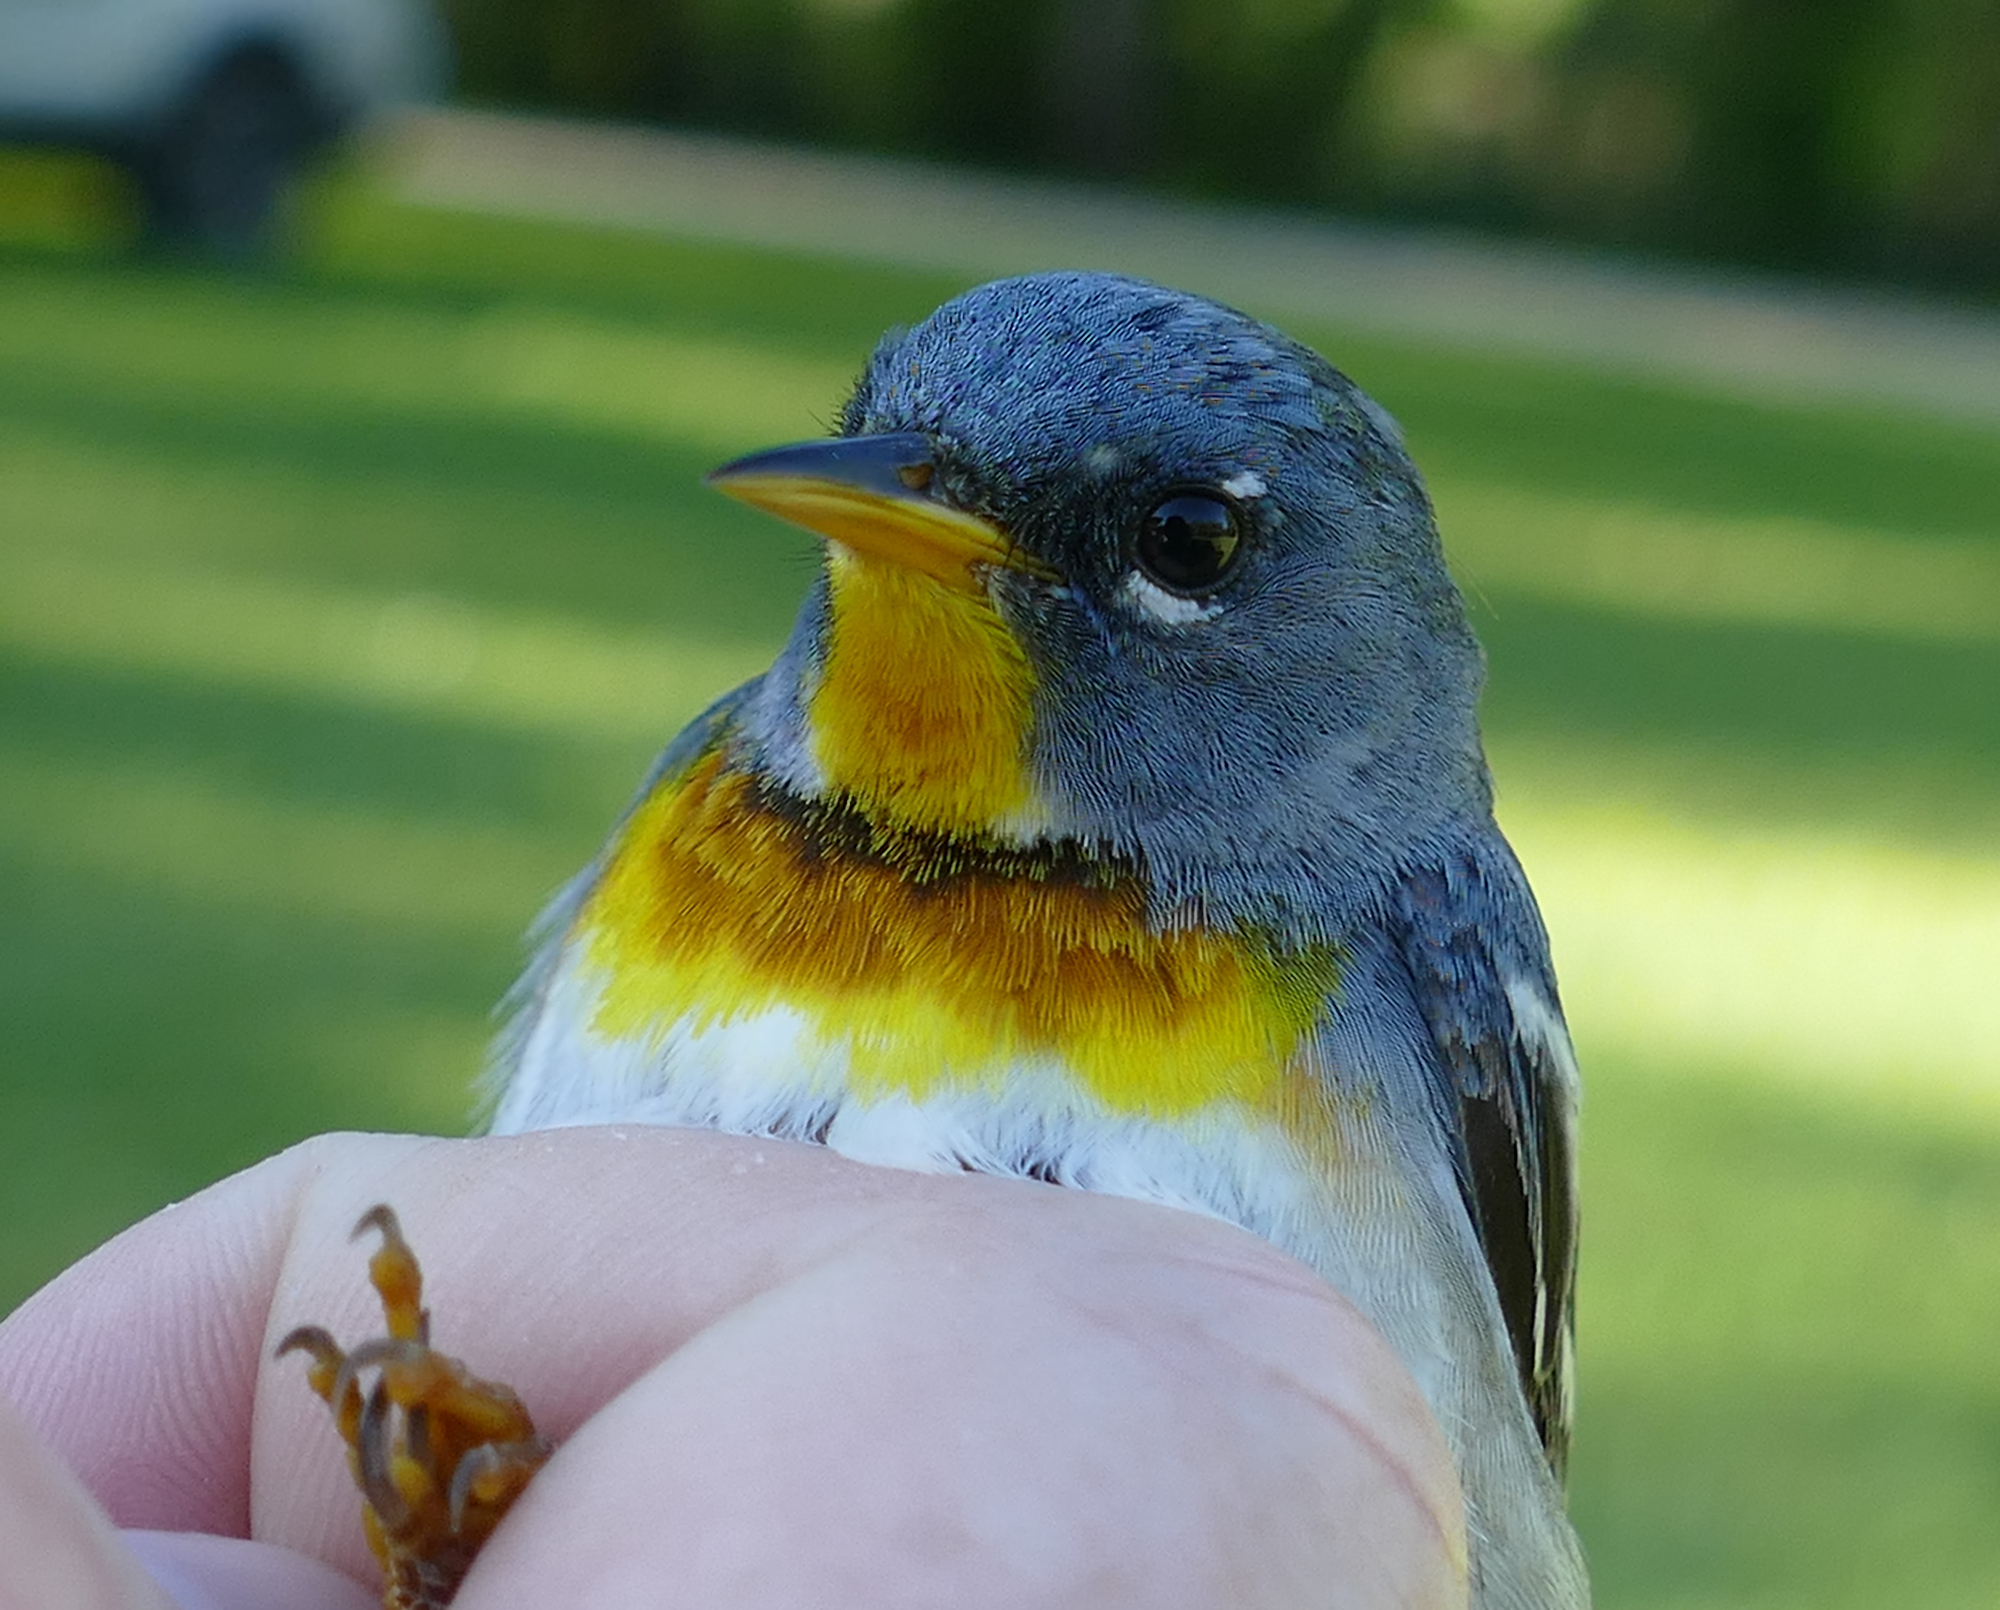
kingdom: Animalia
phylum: Chordata
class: Aves
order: Passeriformes
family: Parulidae
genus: Setophaga
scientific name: Setophaga americana
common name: Northern parula
